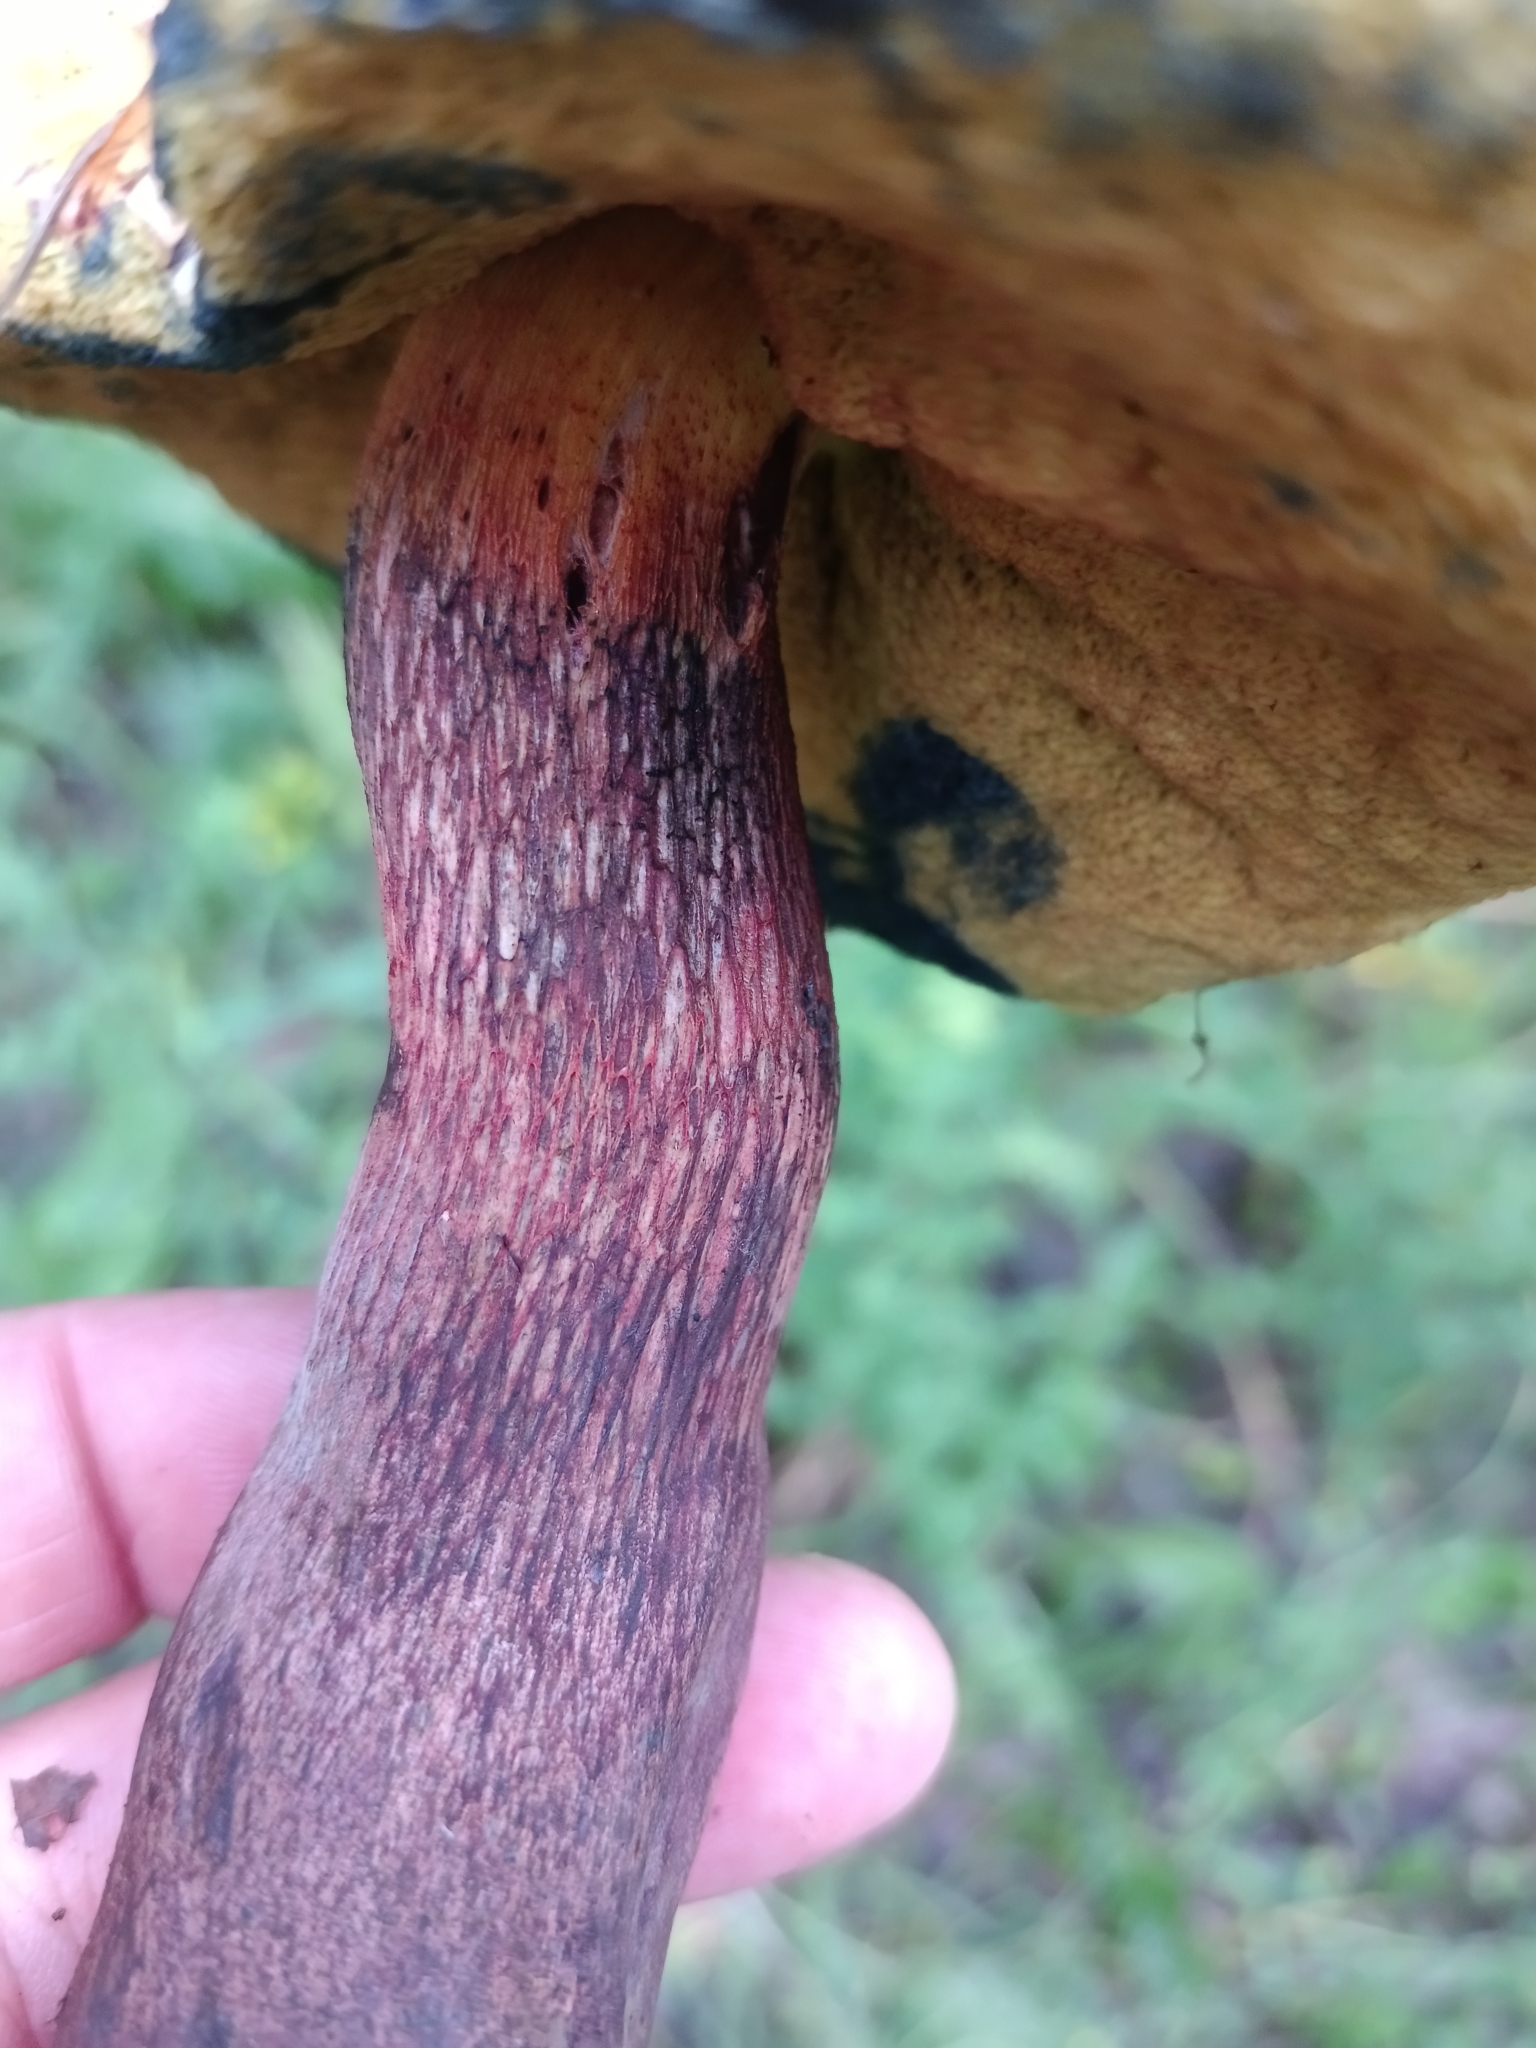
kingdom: Fungi
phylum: Basidiomycota
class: Agaricomycetes
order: Boletales
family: Boletaceae
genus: Suillellus
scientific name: Suillellus luridus
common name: Lurid bolete
